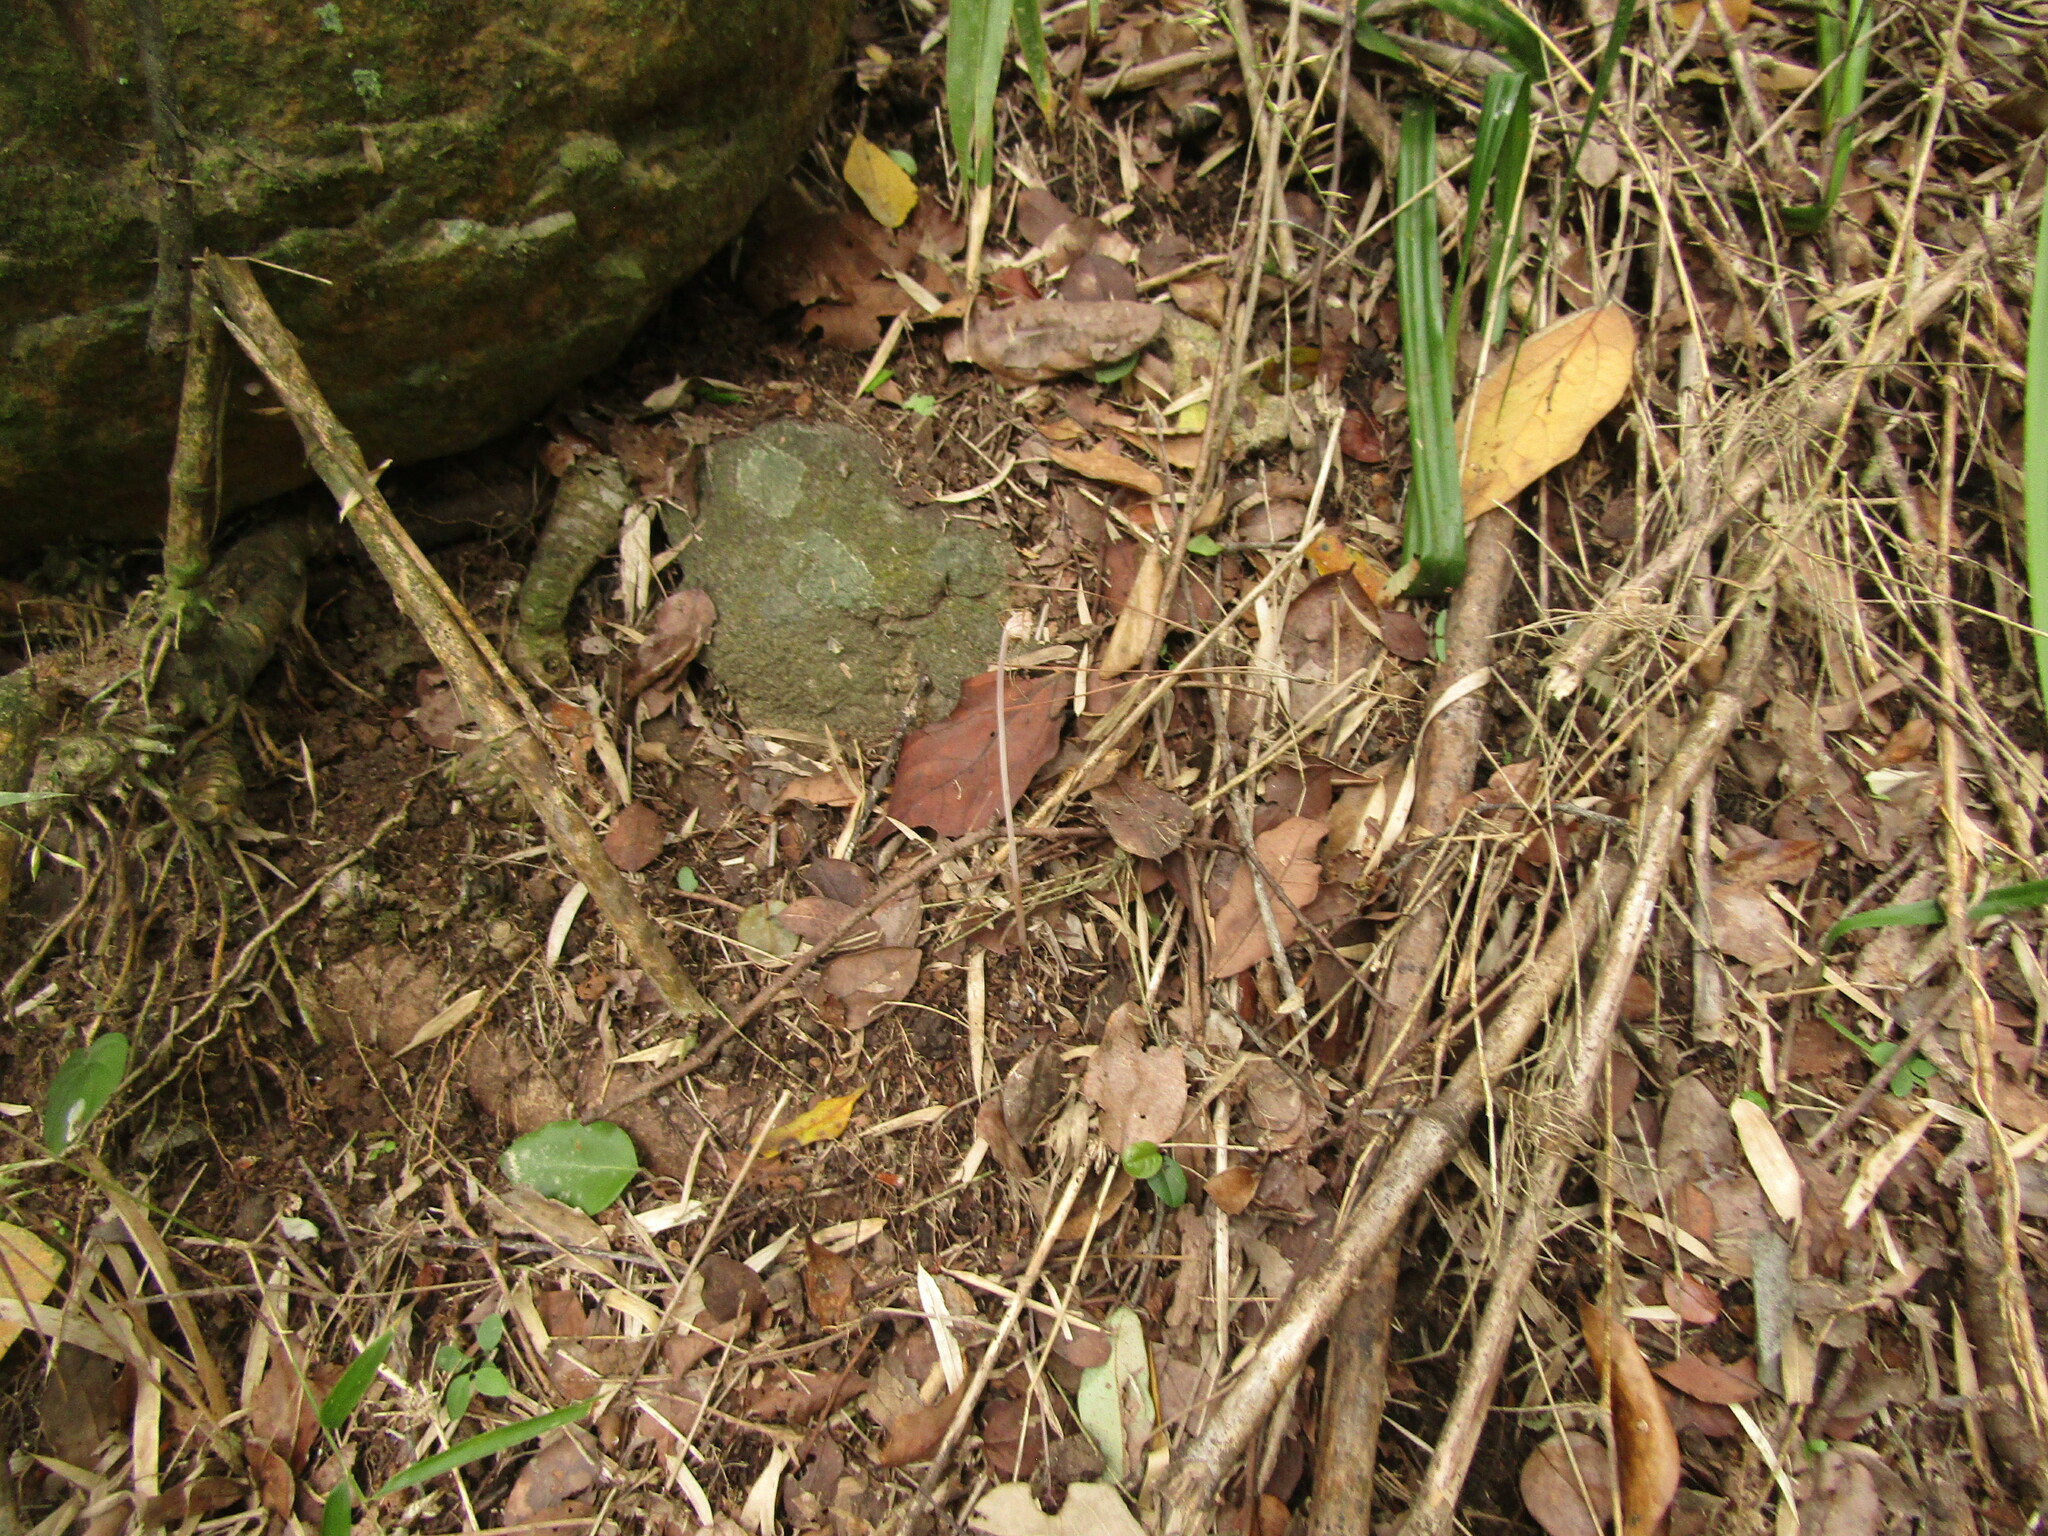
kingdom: Plantae
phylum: Tracheophyta
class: Liliopsida
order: Liliales
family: Corsiaceae
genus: Arachnitis
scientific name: Arachnitis uniflora
